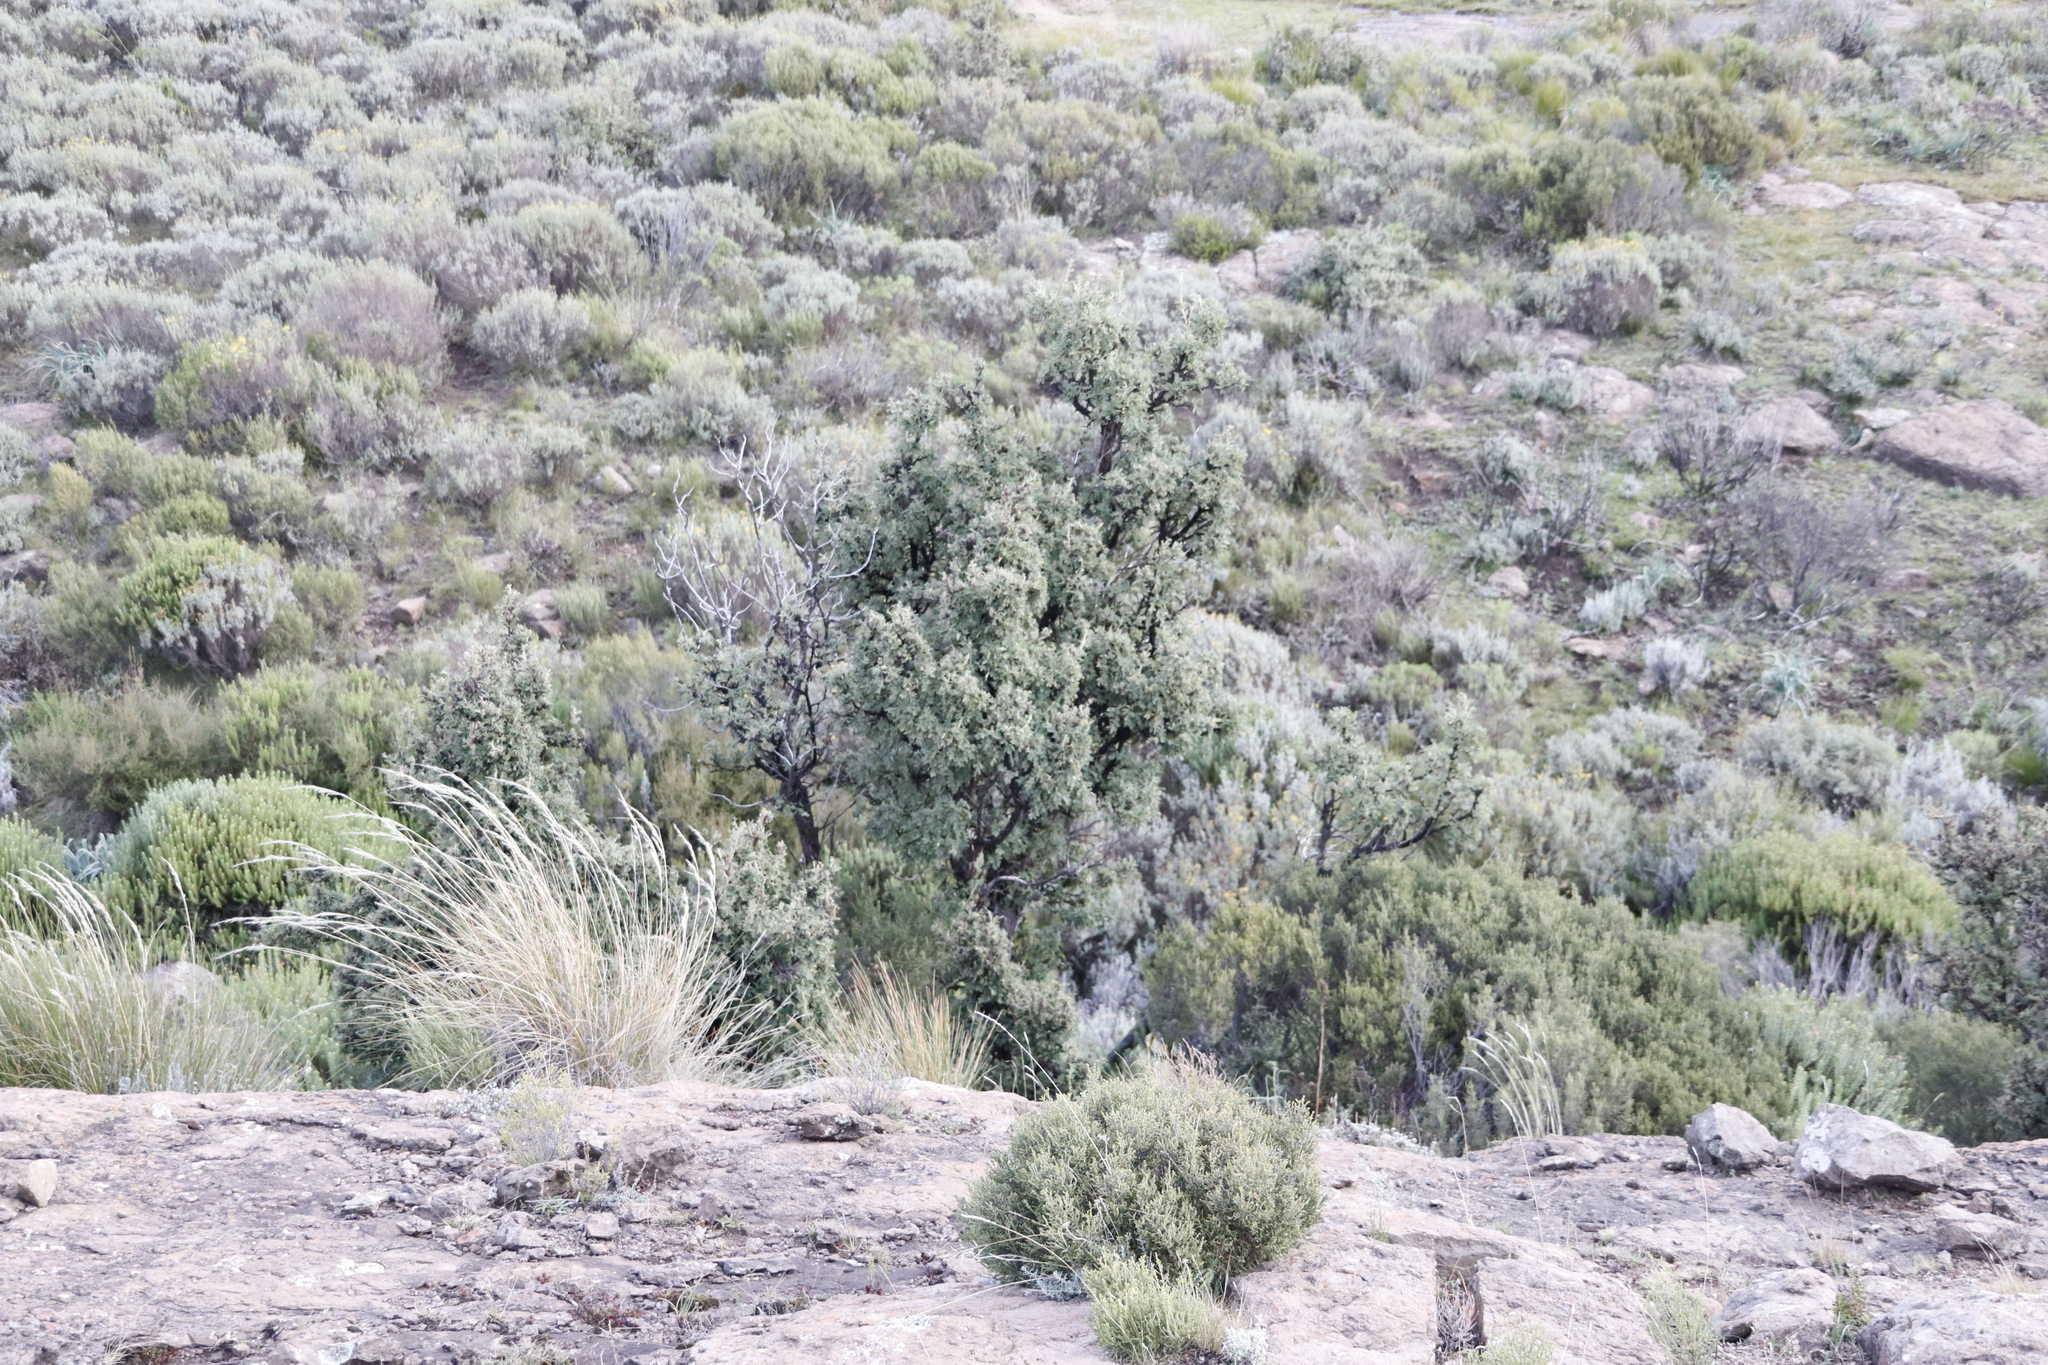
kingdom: Plantae
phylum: Tracheophyta
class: Magnoliopsida
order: Rosales
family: Rosaceae
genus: Leucosidea
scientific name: Leucosidea sericea
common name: Oldwood
